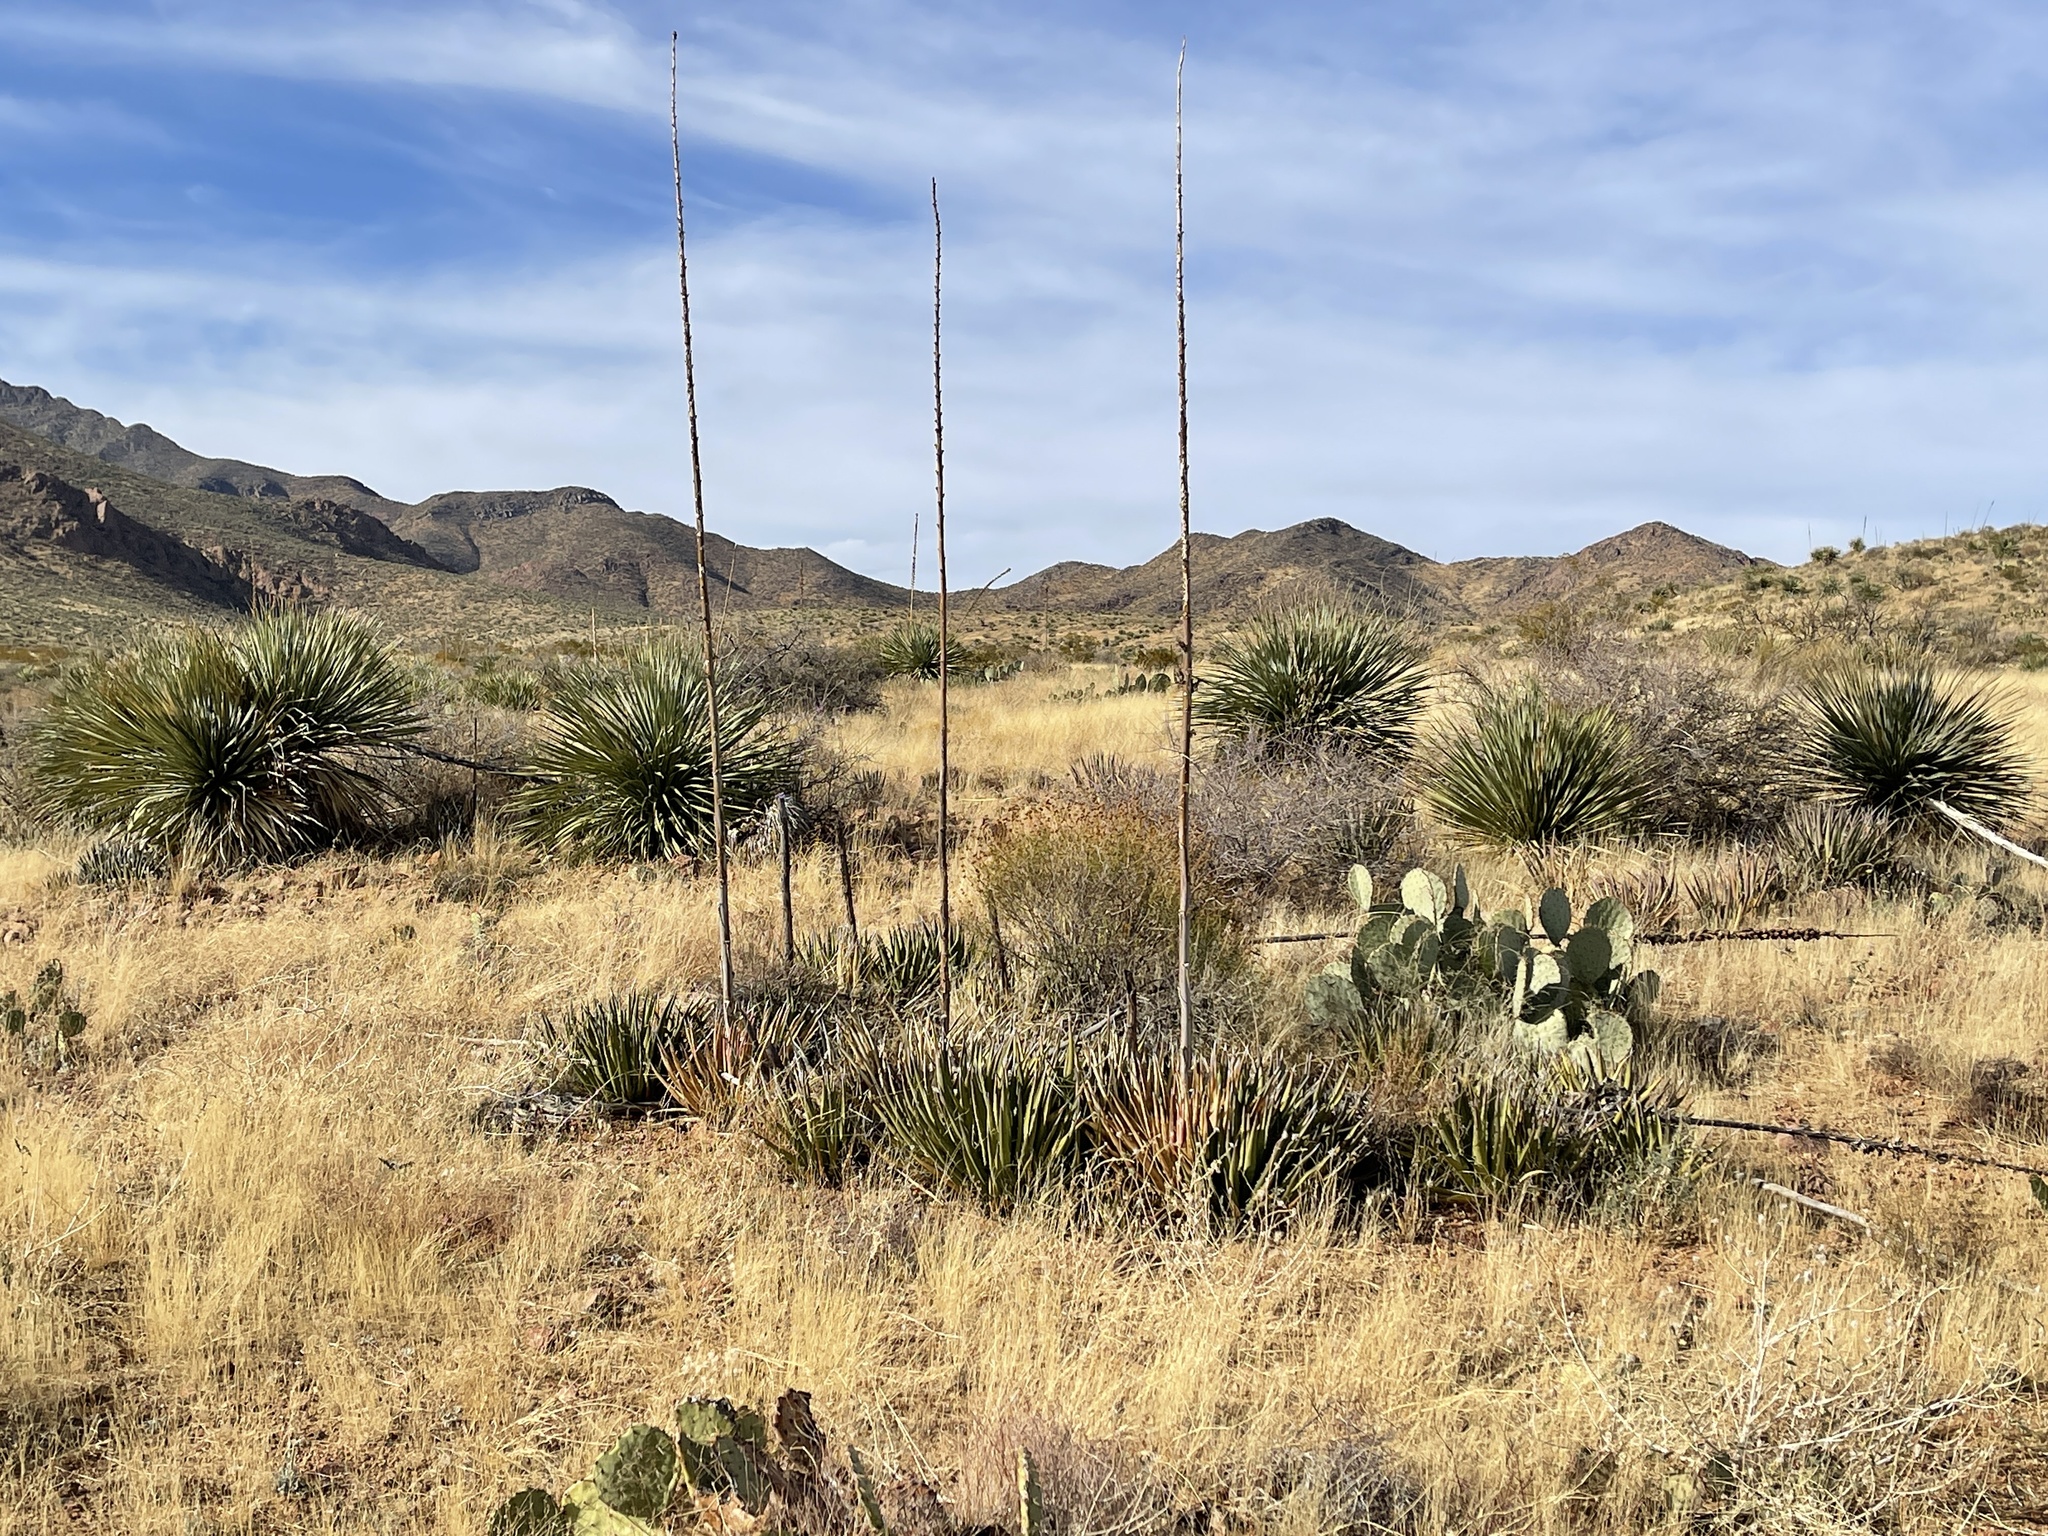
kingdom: Plantae
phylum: Tracheophyta
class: Liliopsida
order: Asparagales
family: Asparagaceae
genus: Agave
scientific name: Agave lechuguilla
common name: Lecheguilla agave
